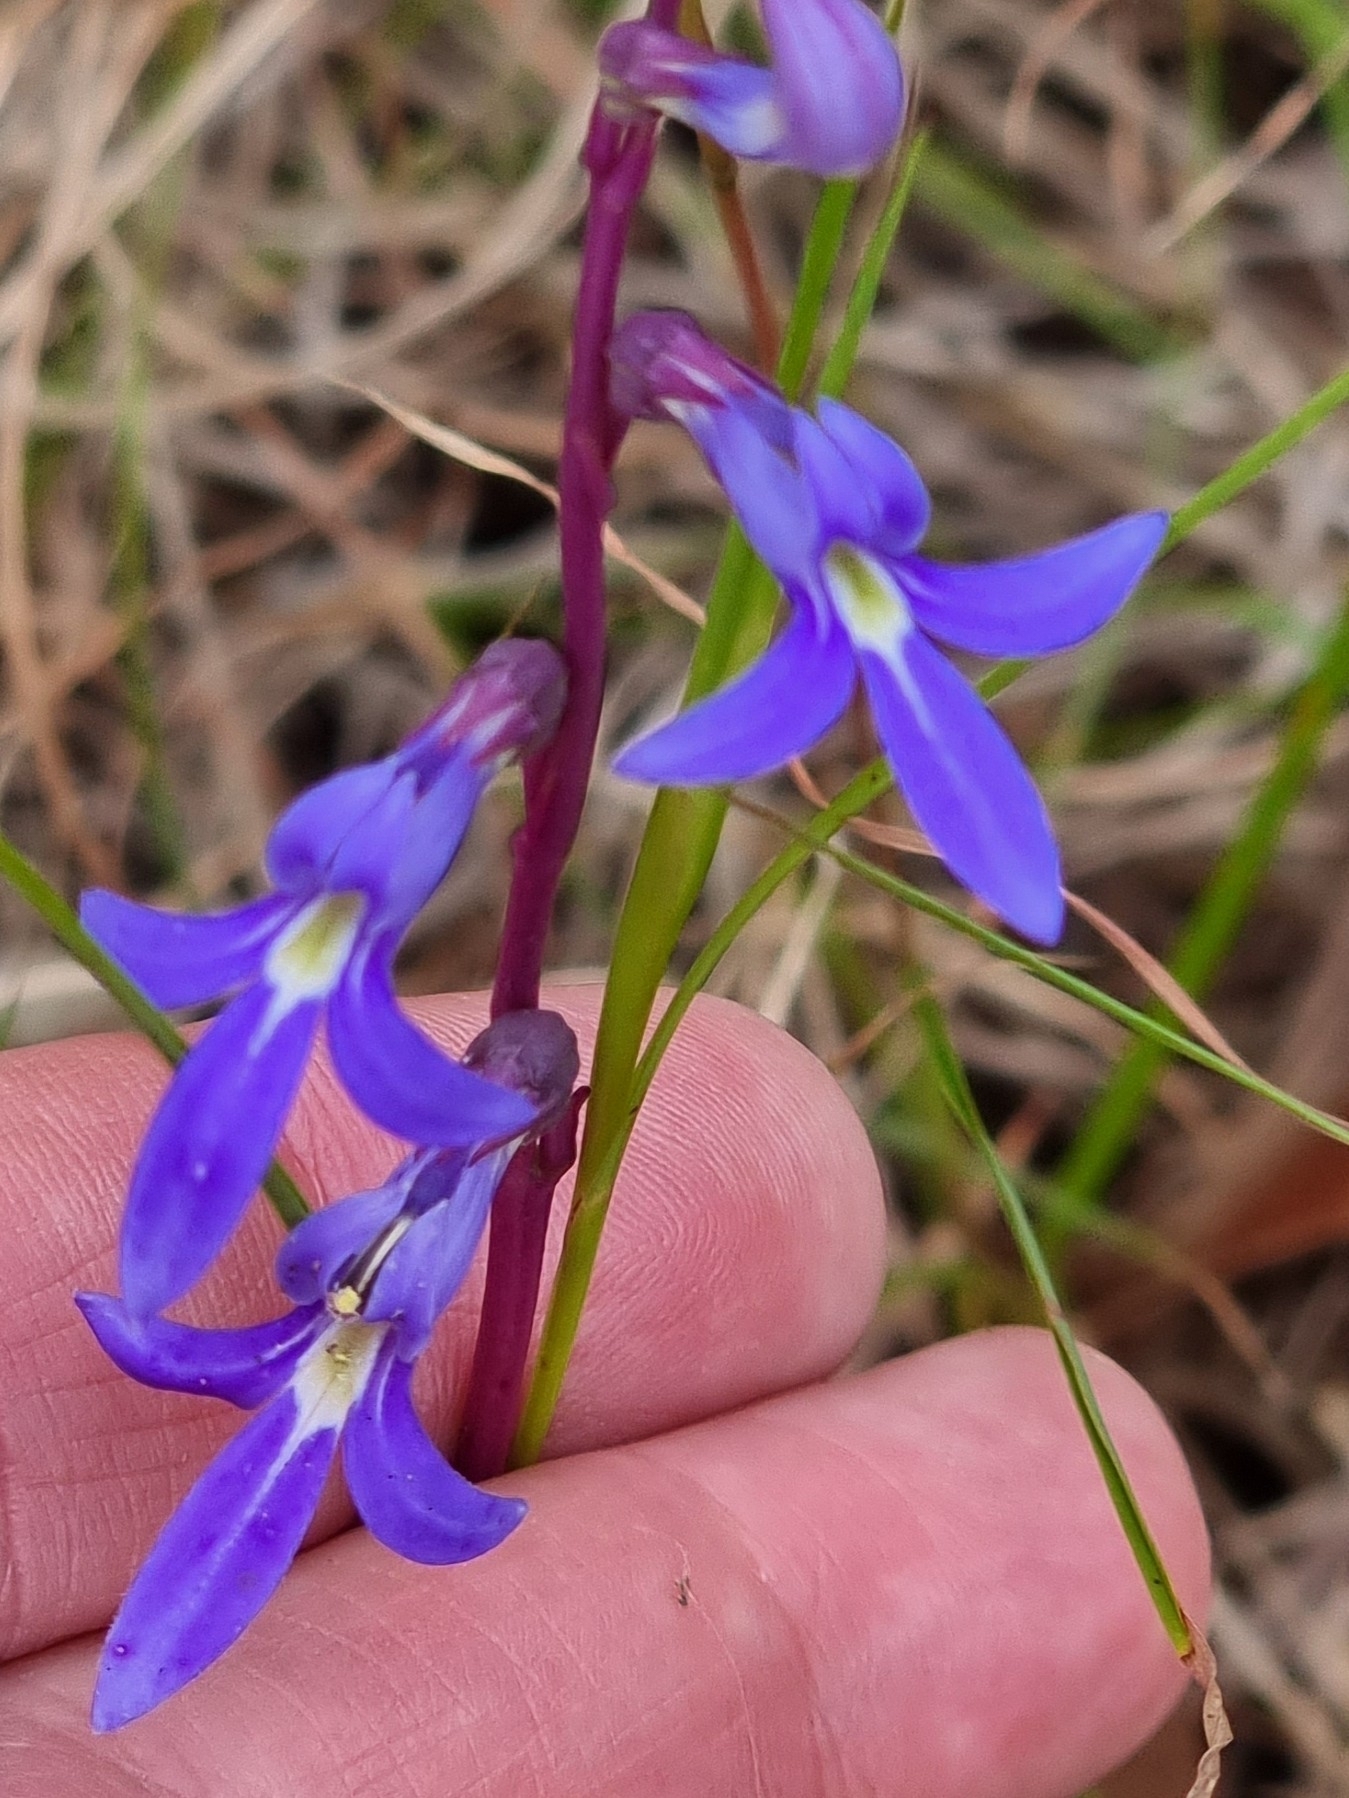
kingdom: Plantae
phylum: Tracheophyta
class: Magnoliopsida
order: Asterales
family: Campanulaceae
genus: Lobelia
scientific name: Lobelia gibbosa
